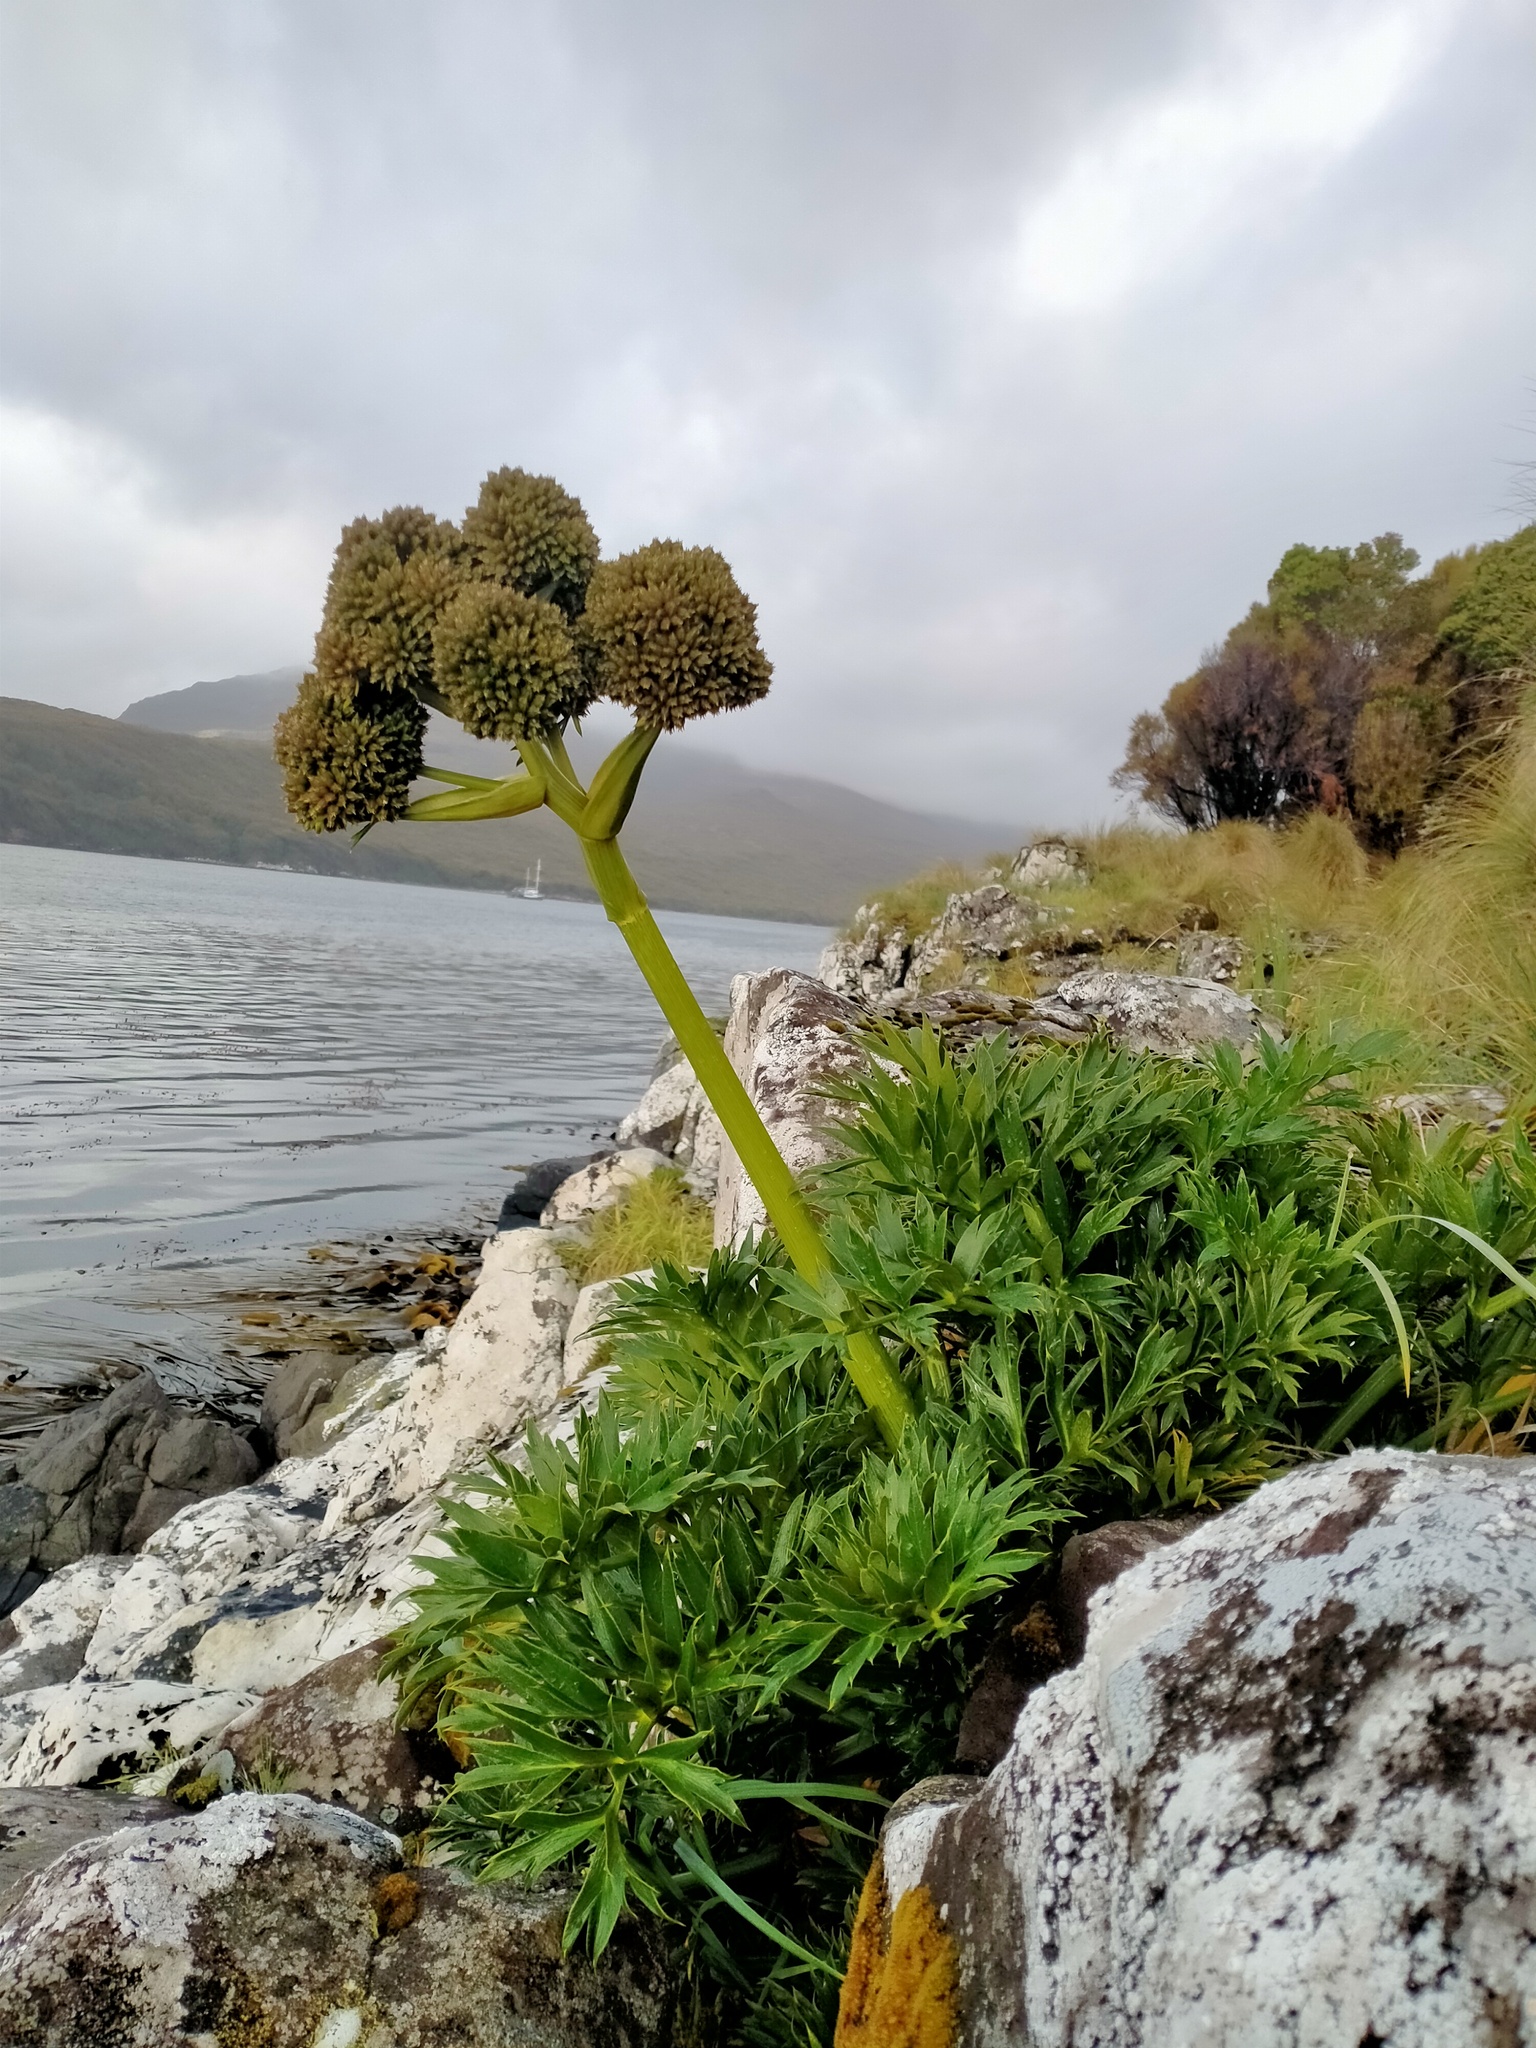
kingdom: Plantae
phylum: Tracheophyta
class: Magnoliopsida
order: Apiales
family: Apiaceae
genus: Anisotome
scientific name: Anisotome latifolia
